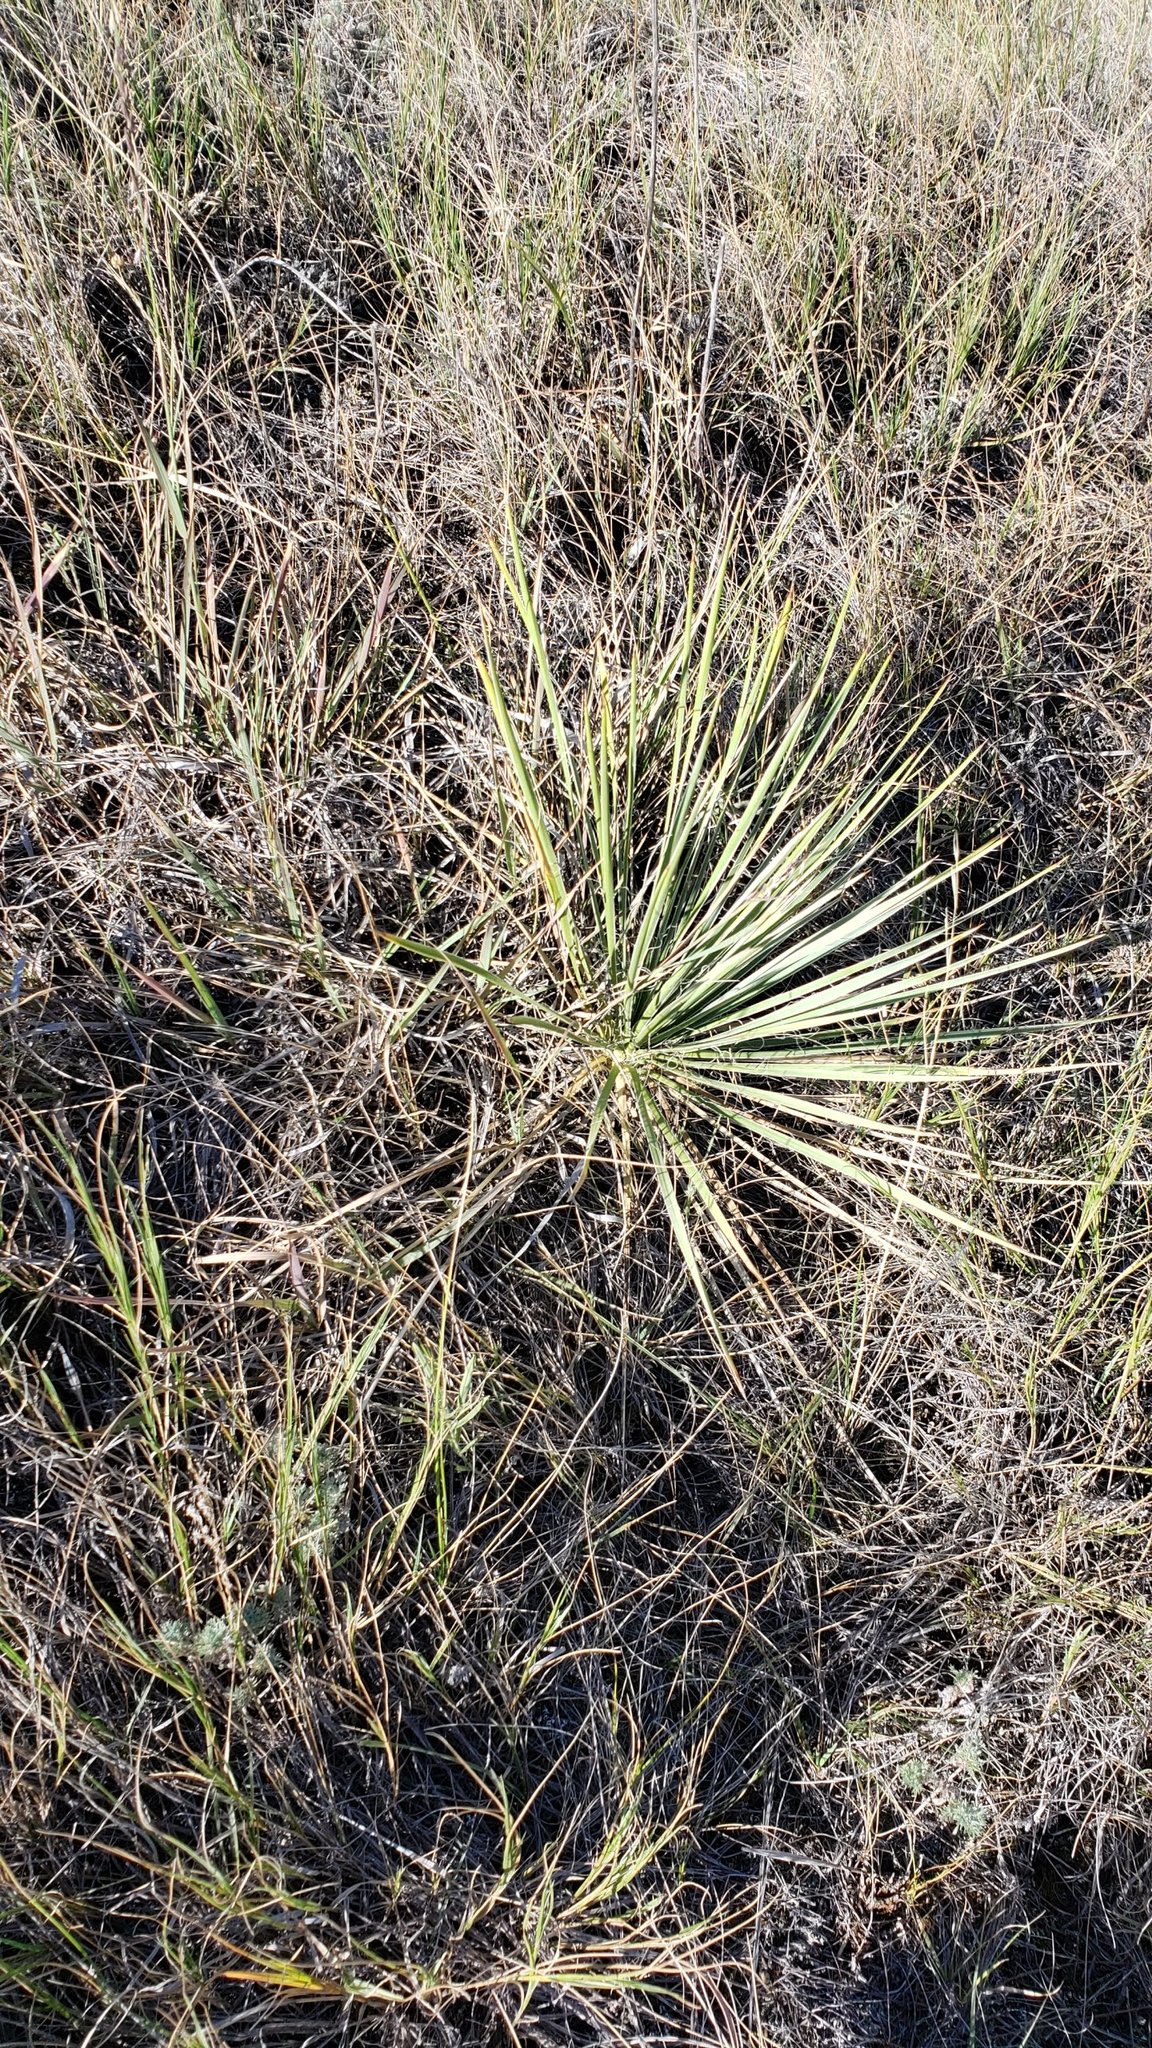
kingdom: Plantae
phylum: Tracheophyta
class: Liliopsida
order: Asparagales
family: Asparagaceae
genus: Yucca
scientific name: Yucca glauca
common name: Great plains yucca
